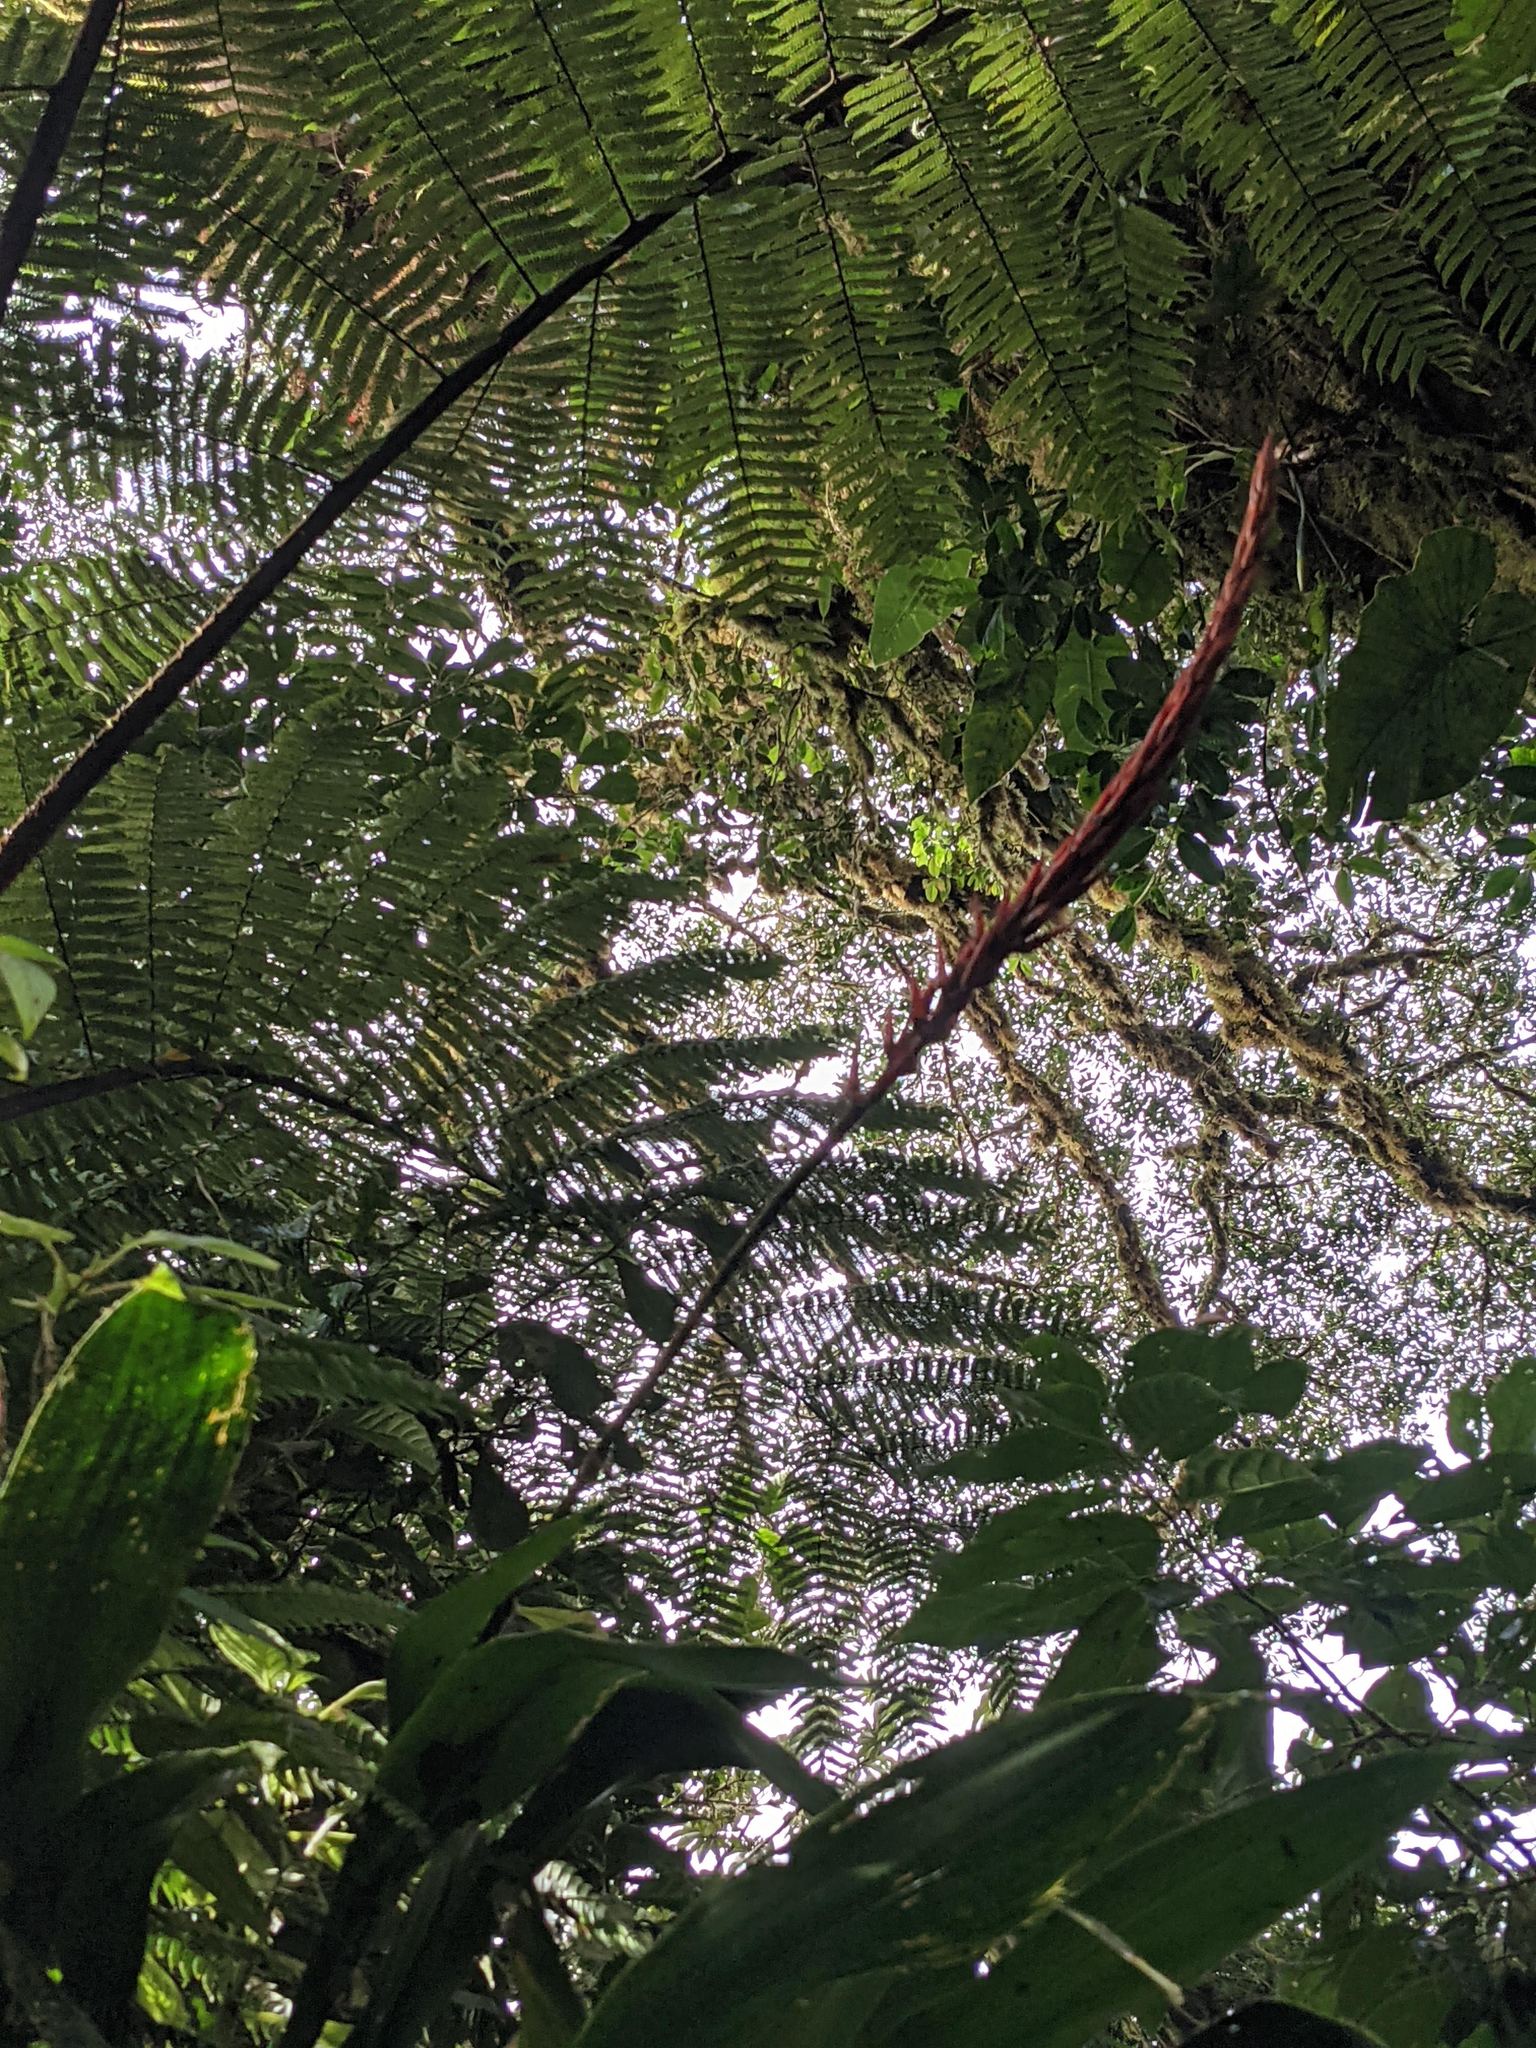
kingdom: Plantae
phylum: Tracheophyta
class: Liliopsida
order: Poales
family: Bromeliaceae
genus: Pitcairnia
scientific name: Pitcairnia brittoniana
